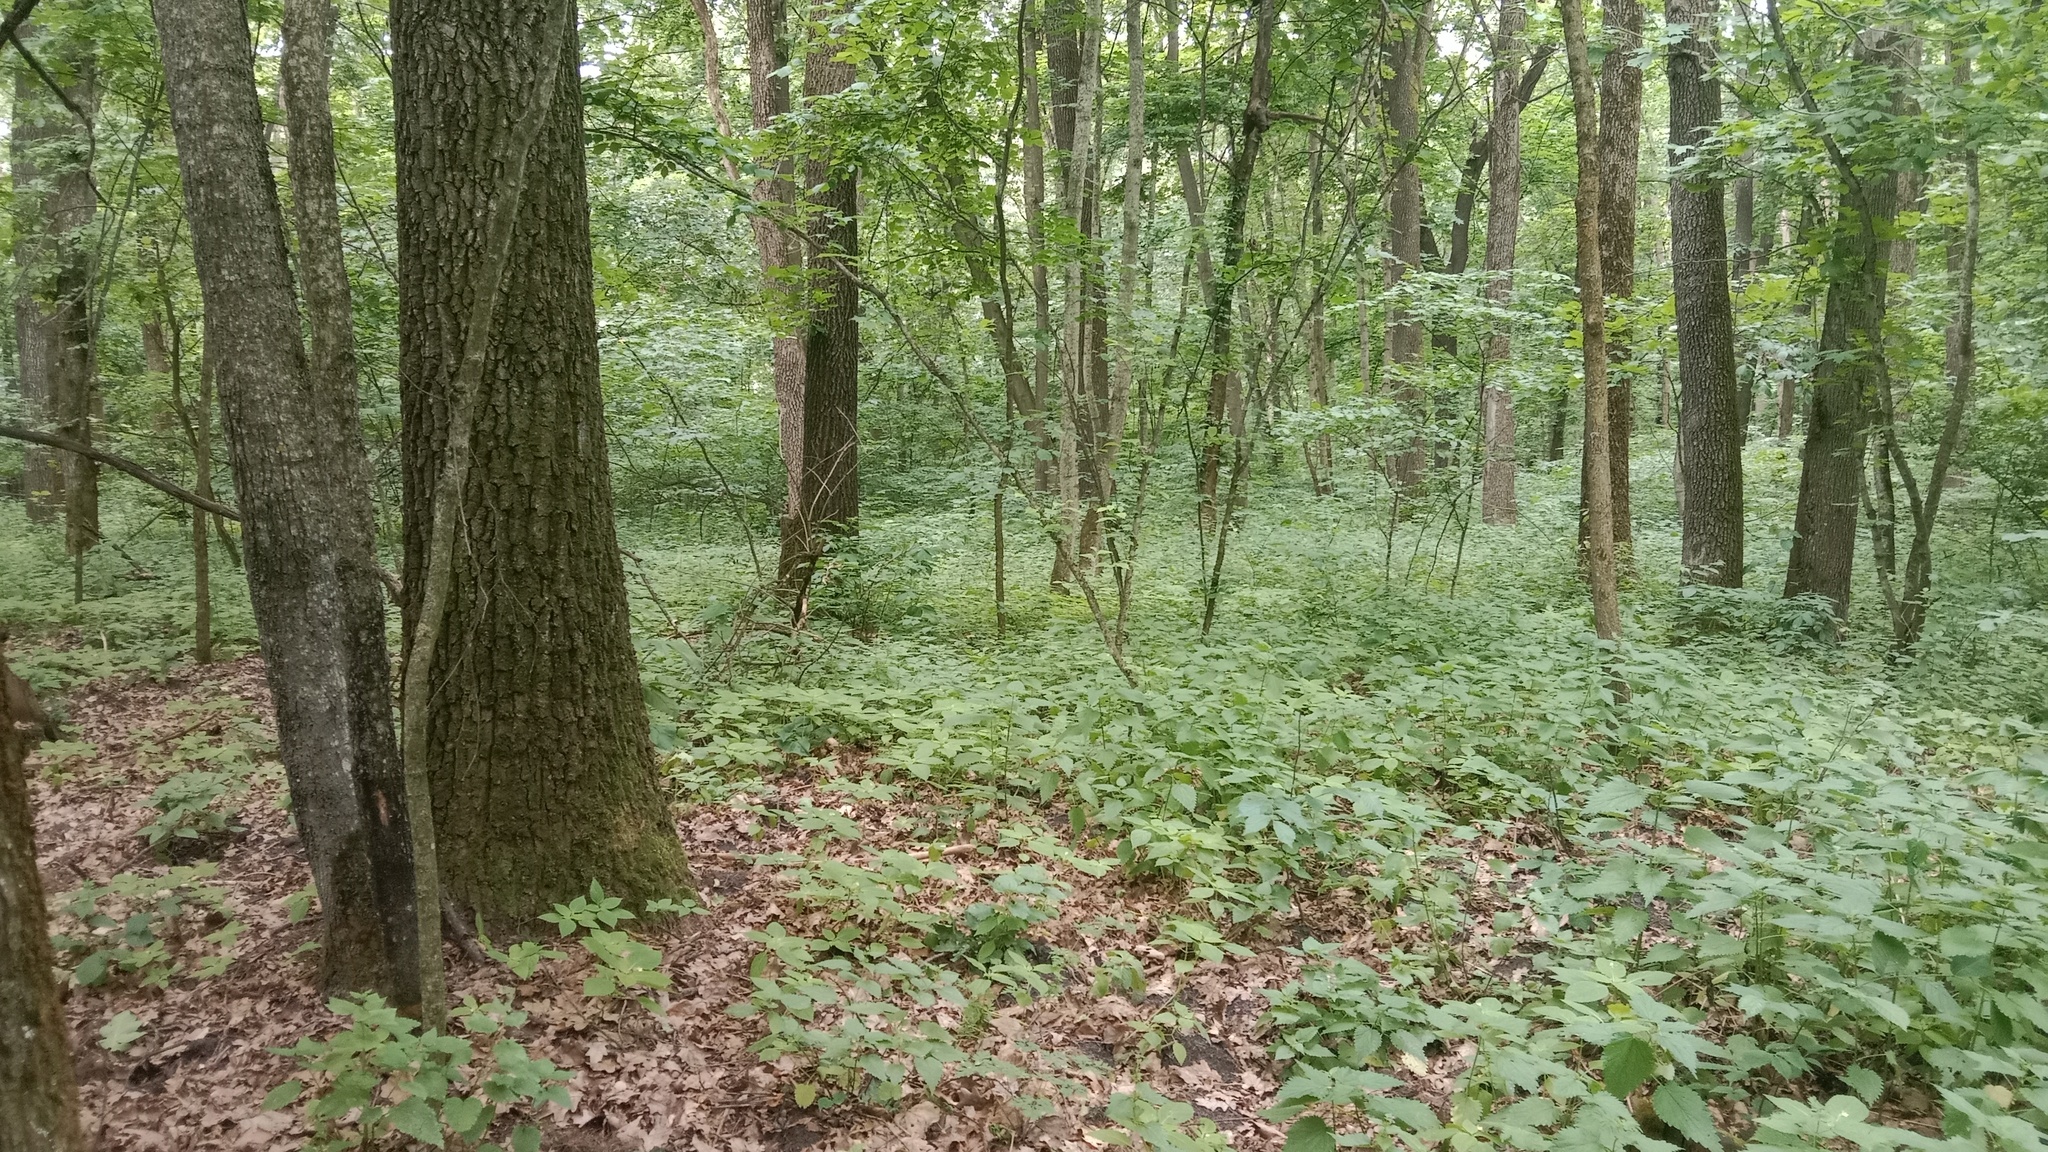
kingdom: Plantae
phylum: Tracheophyta
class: Magnoliopsida
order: Fagales
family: Fagaceae
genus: Quercus
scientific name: Quercus robur
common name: Pedunculate oak
